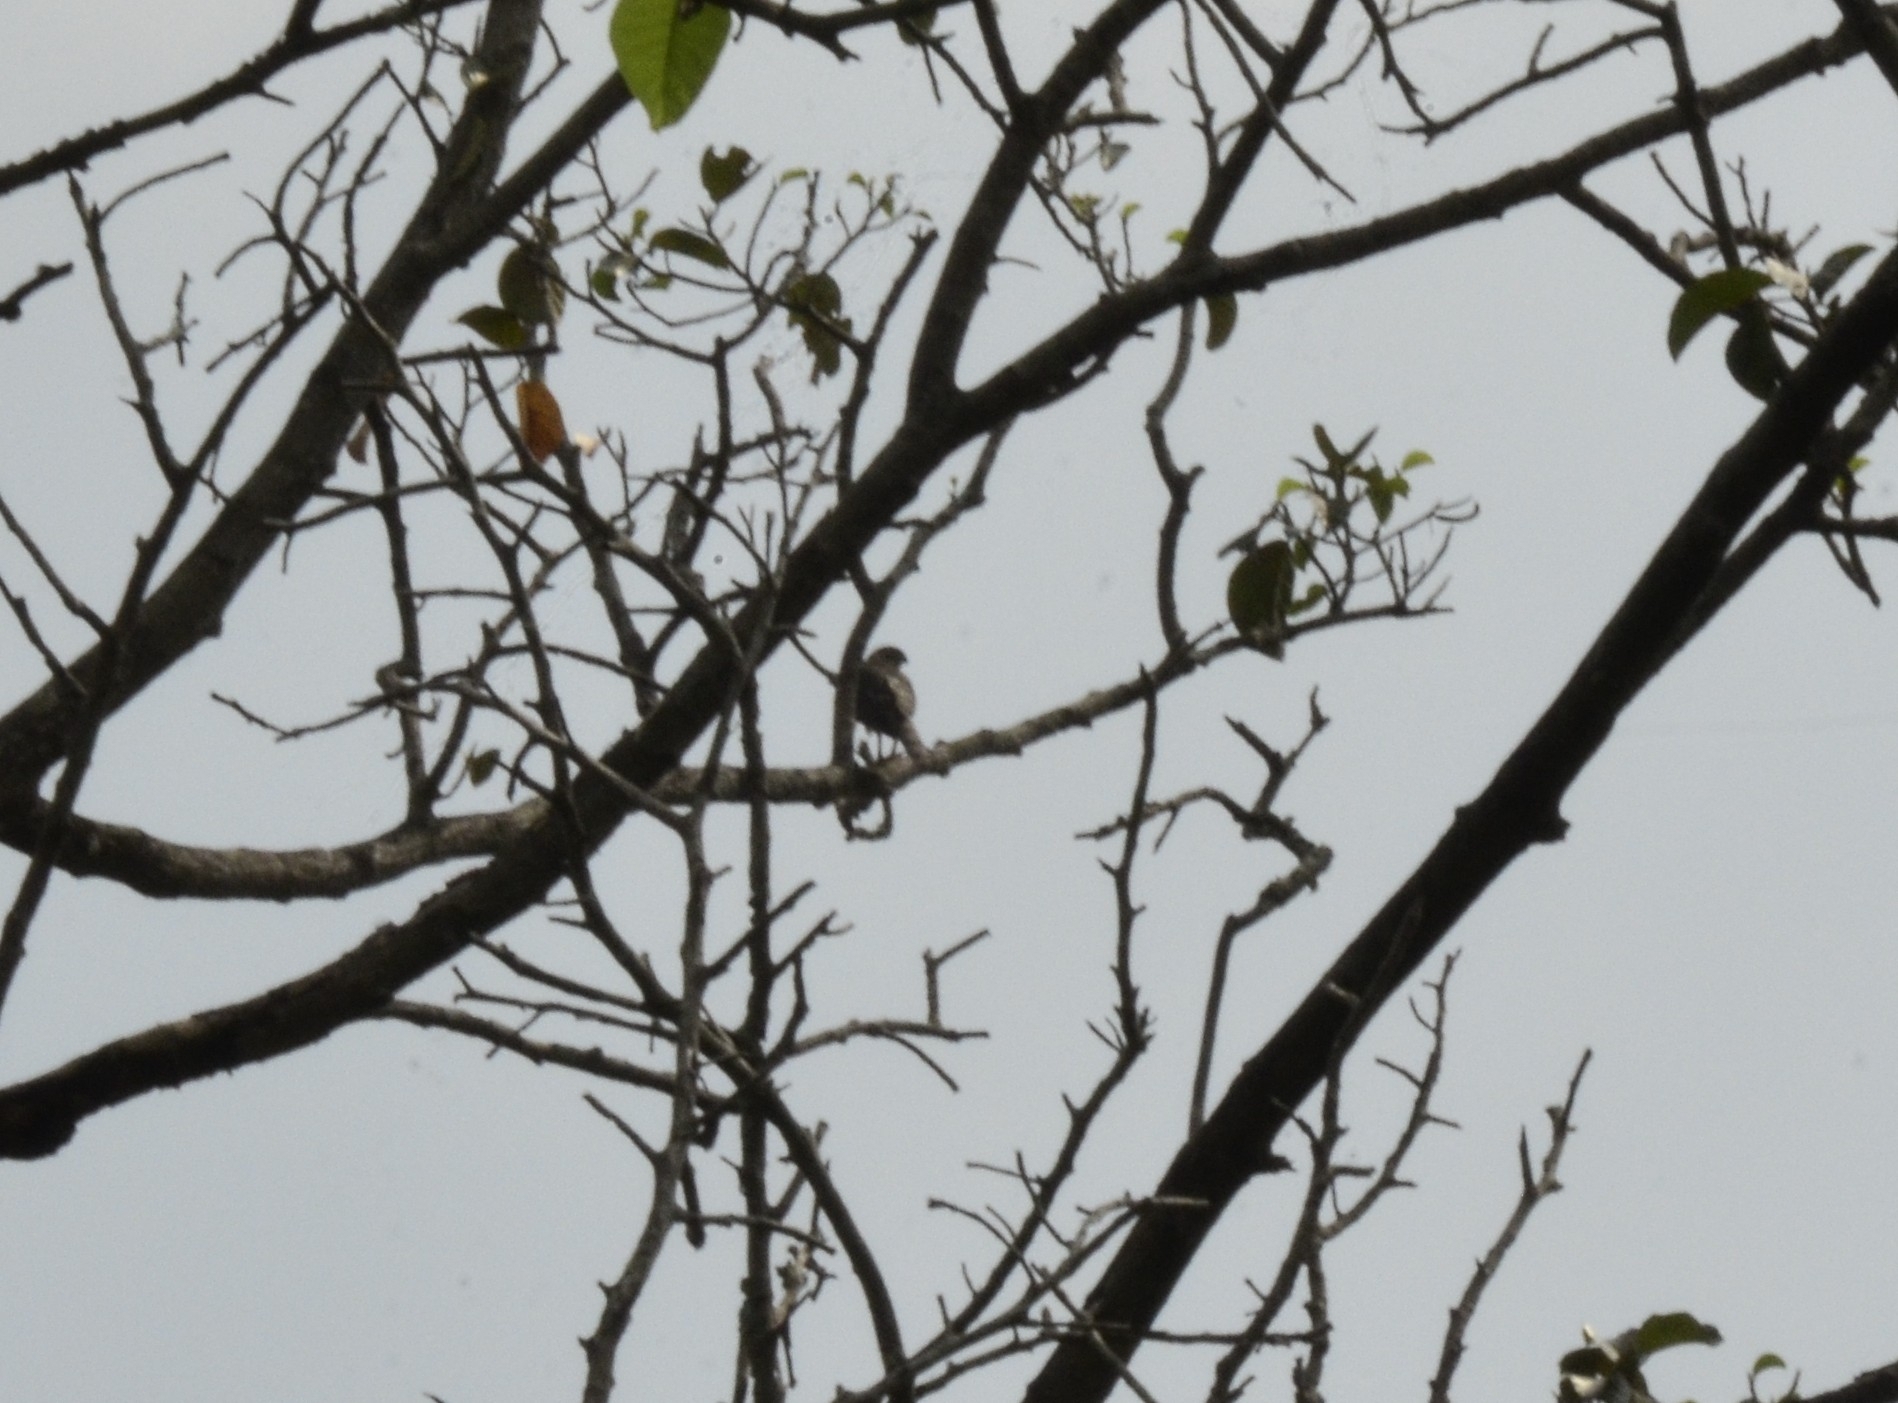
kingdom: Animalia
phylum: Chordata
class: Aves
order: Accipitriformes
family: Accipitridae
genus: Accipiter
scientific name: Accipiter badius
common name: Shikra
